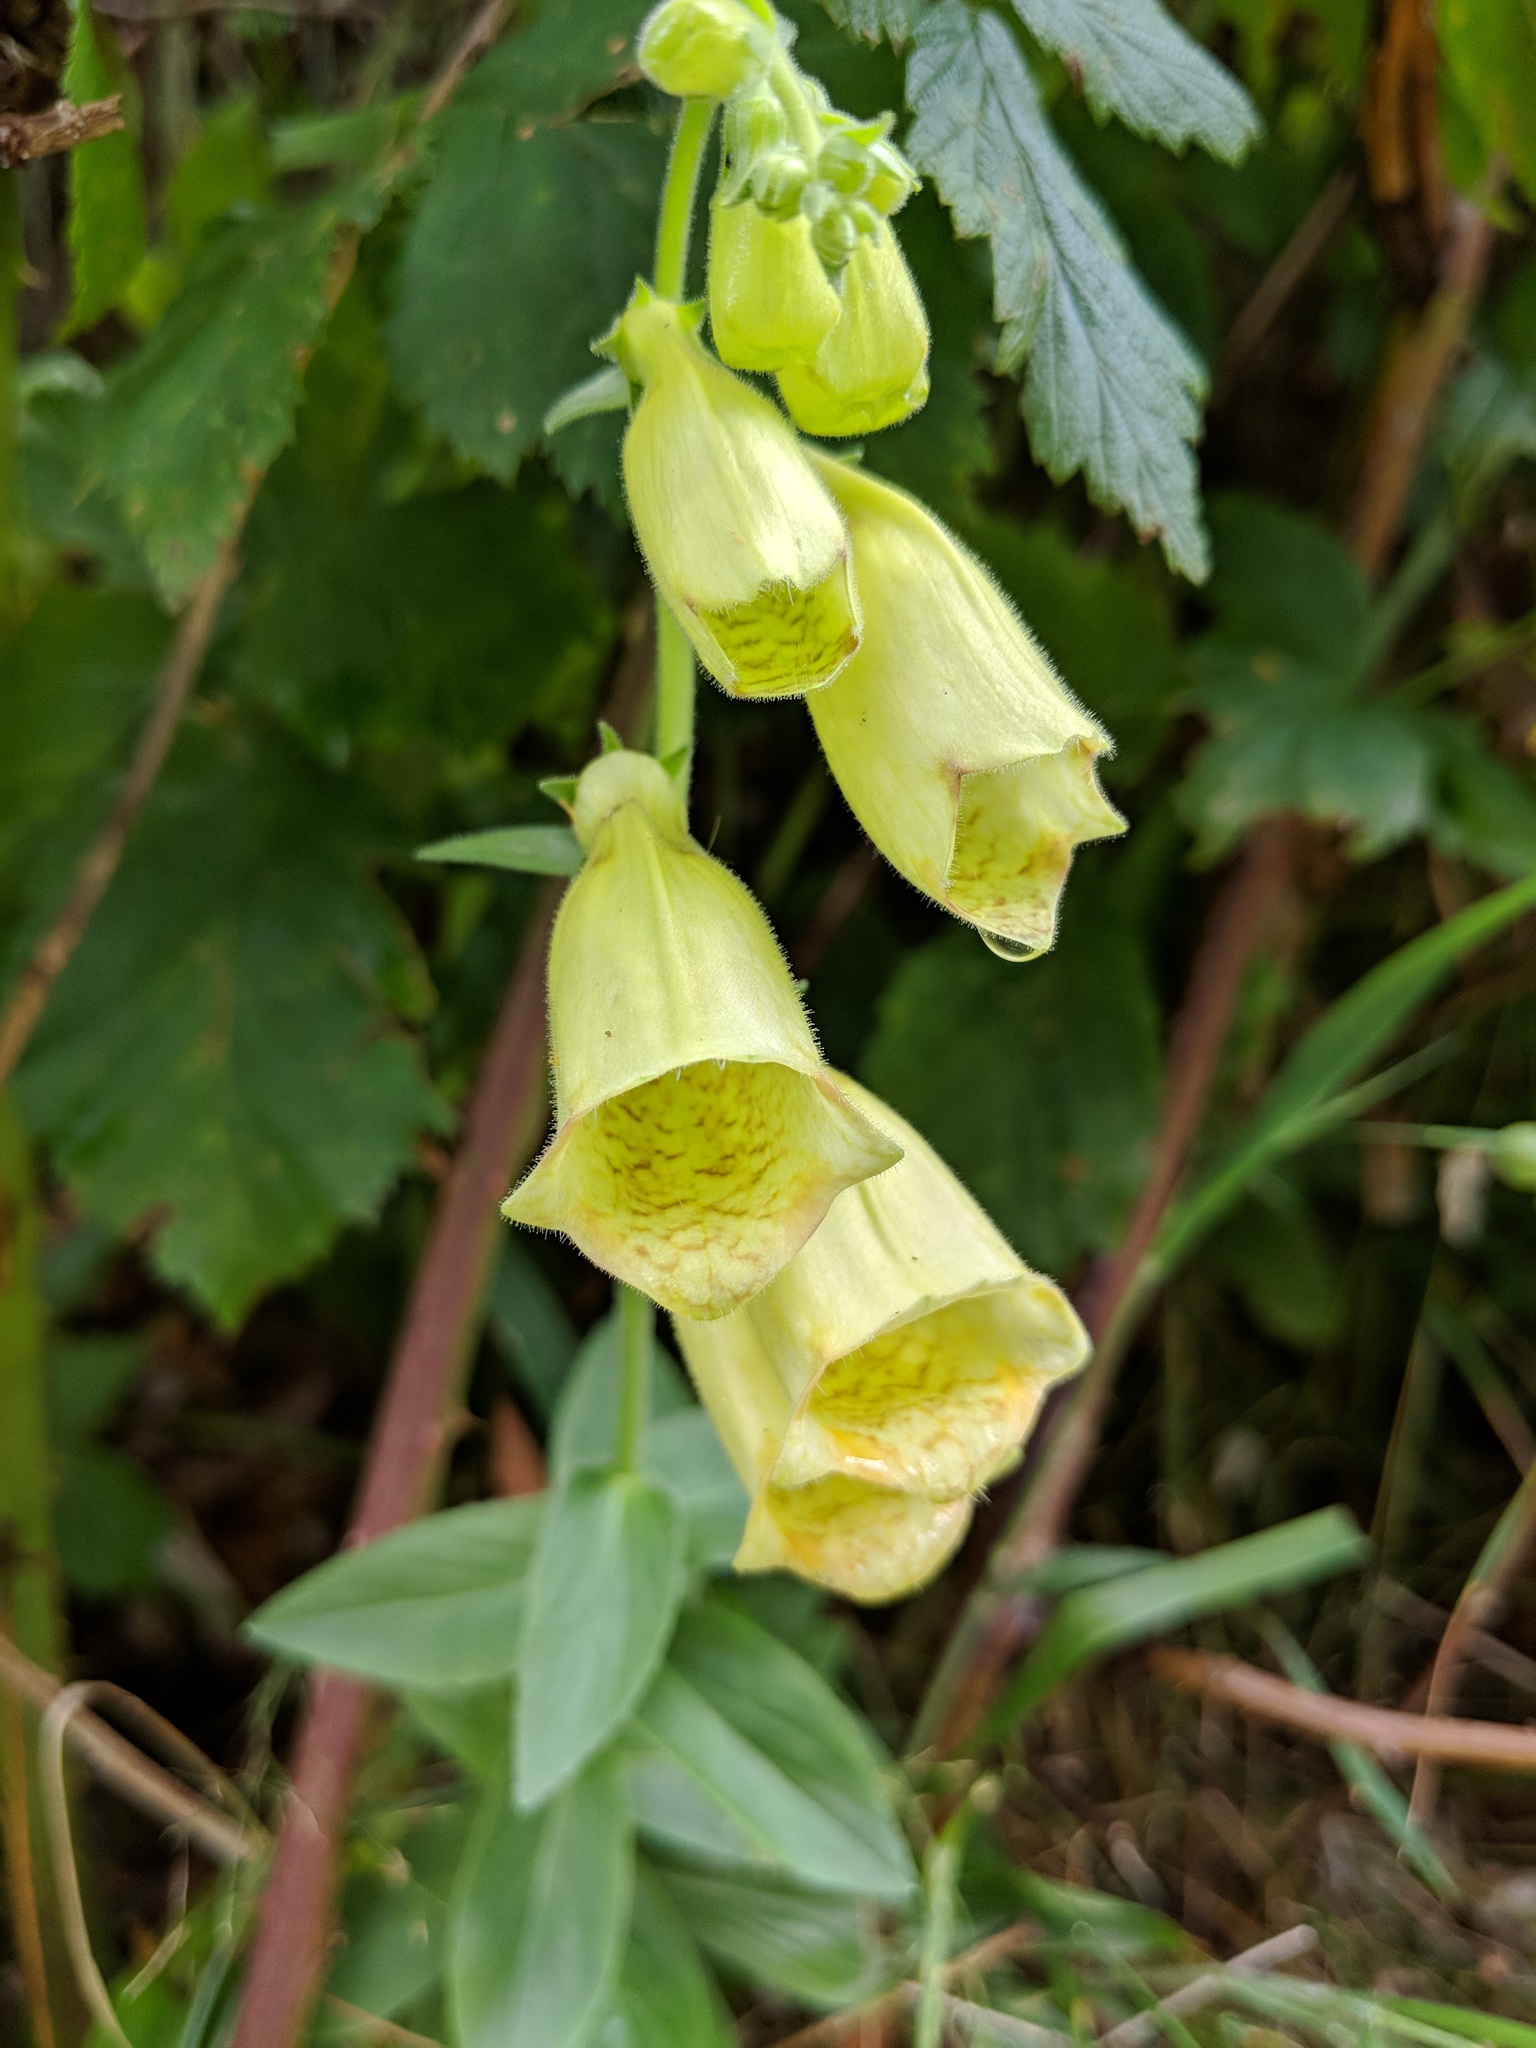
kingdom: Plantae
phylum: Tracheophyta
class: Magnoliopsida
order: Lamiales
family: Plantaginaceae
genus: Digitalis
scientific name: Digitalis grandiflora
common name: Yellow foxglove
